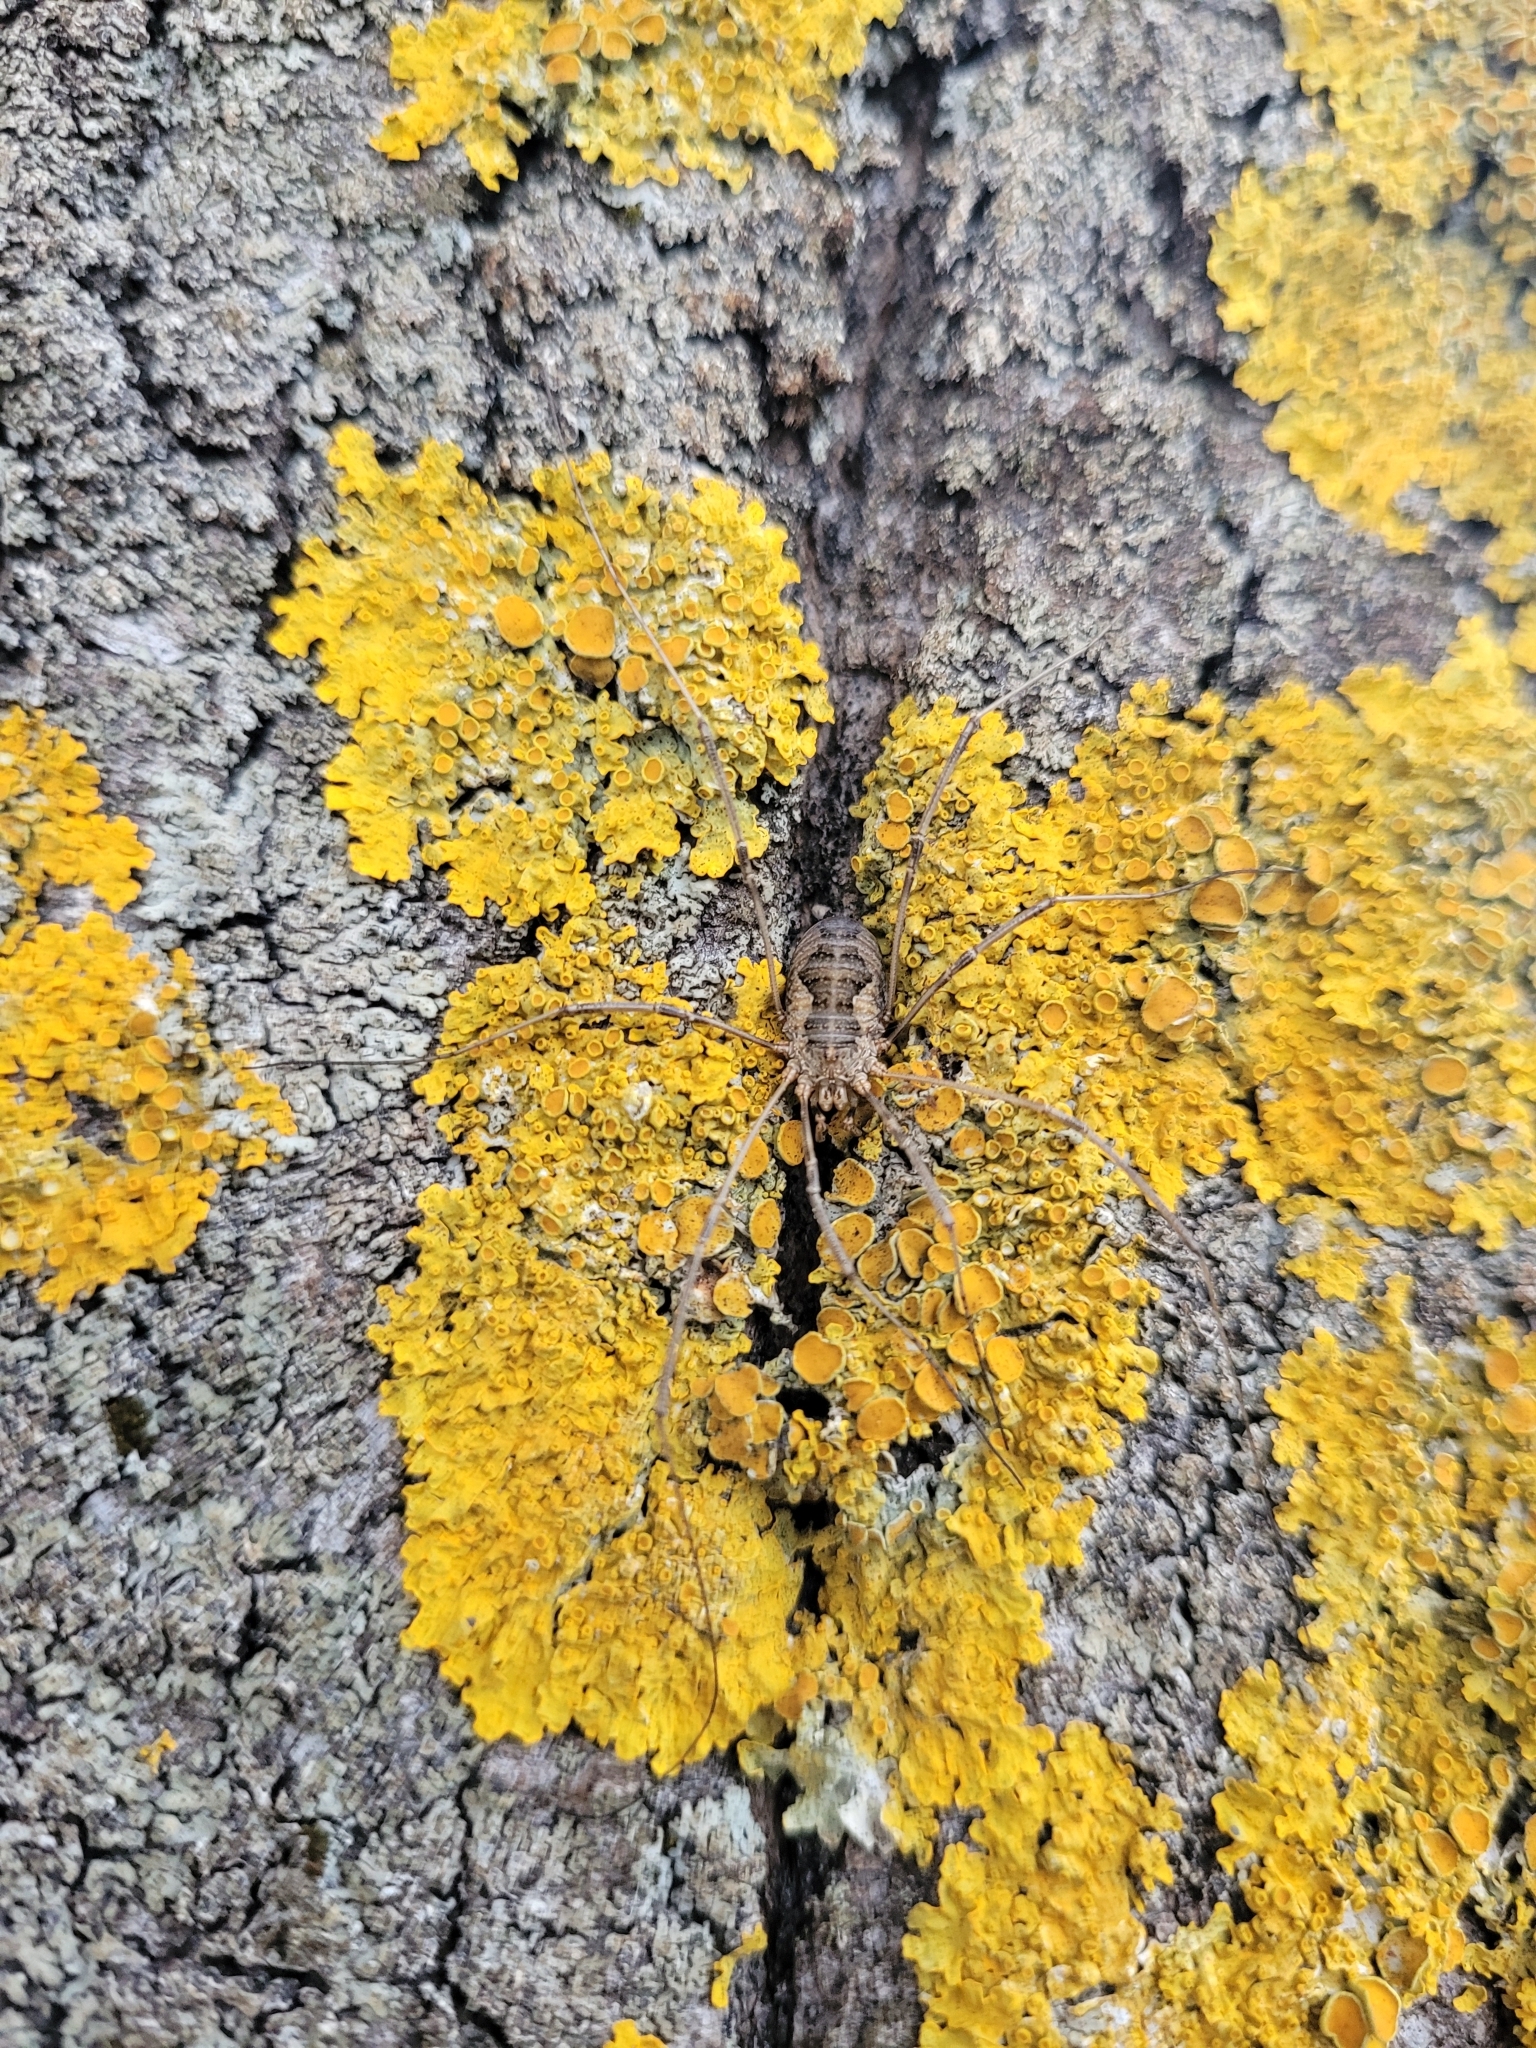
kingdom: Animalia
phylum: Arthropoda
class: Arachnida
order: Opiliones
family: Phalangiidae
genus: Phalangium
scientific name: Phalangium opilio
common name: Daddy longleg
